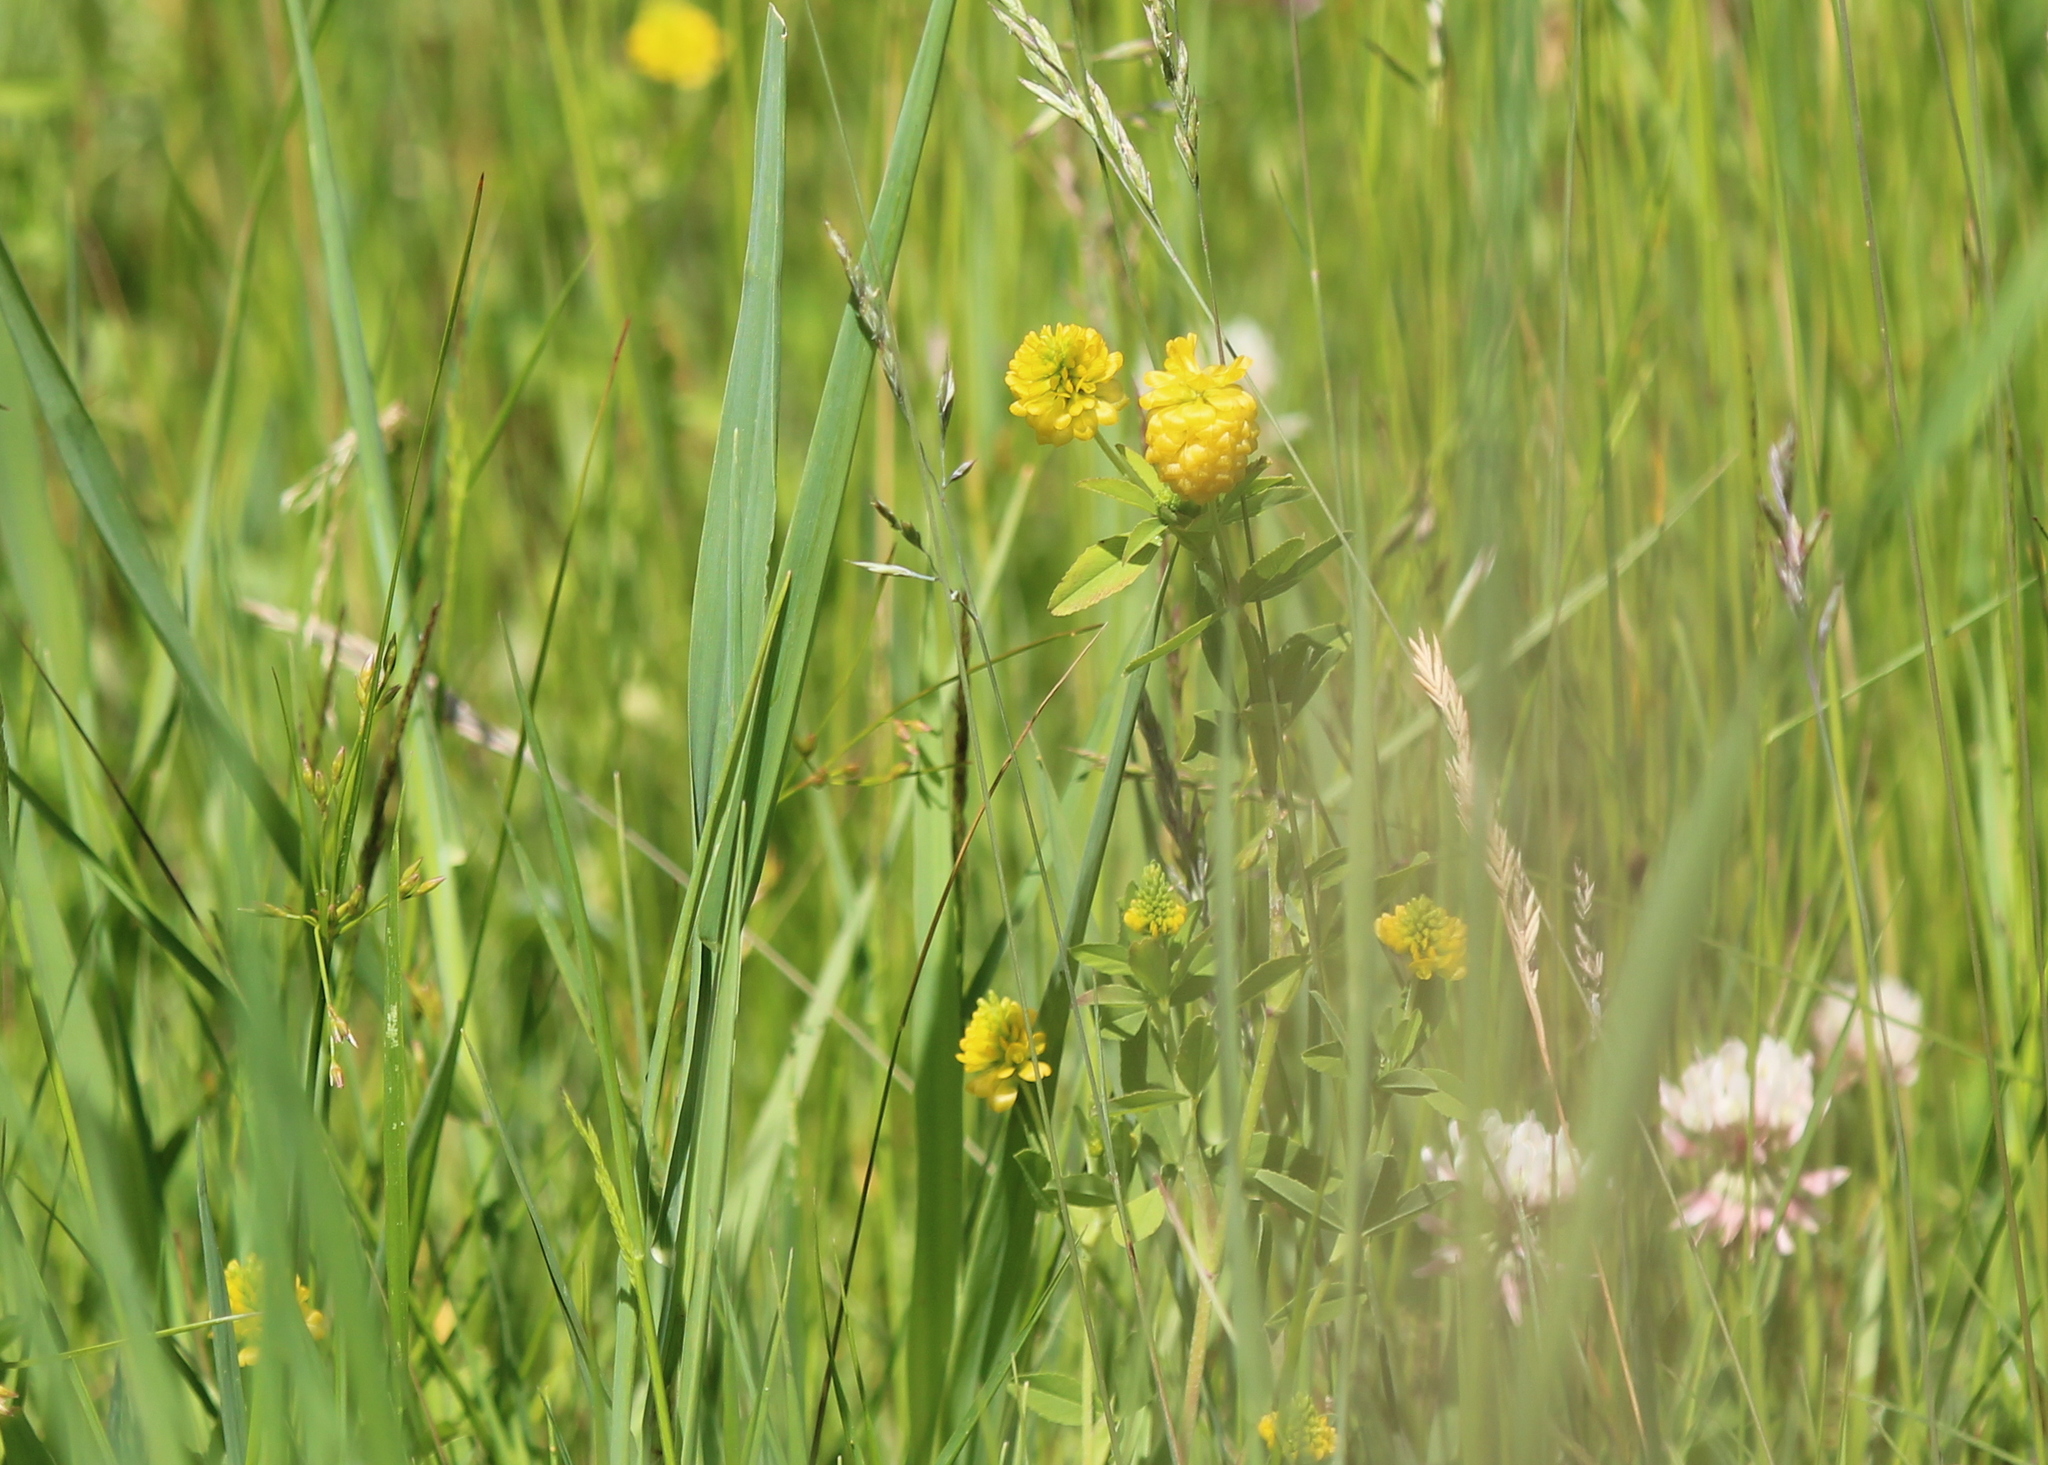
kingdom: Plantae
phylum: Tracheophyta
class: Magnoliopsida
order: Fabales
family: Fabaceae
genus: Trifolium
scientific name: Trifolium aureum
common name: Golden clover
